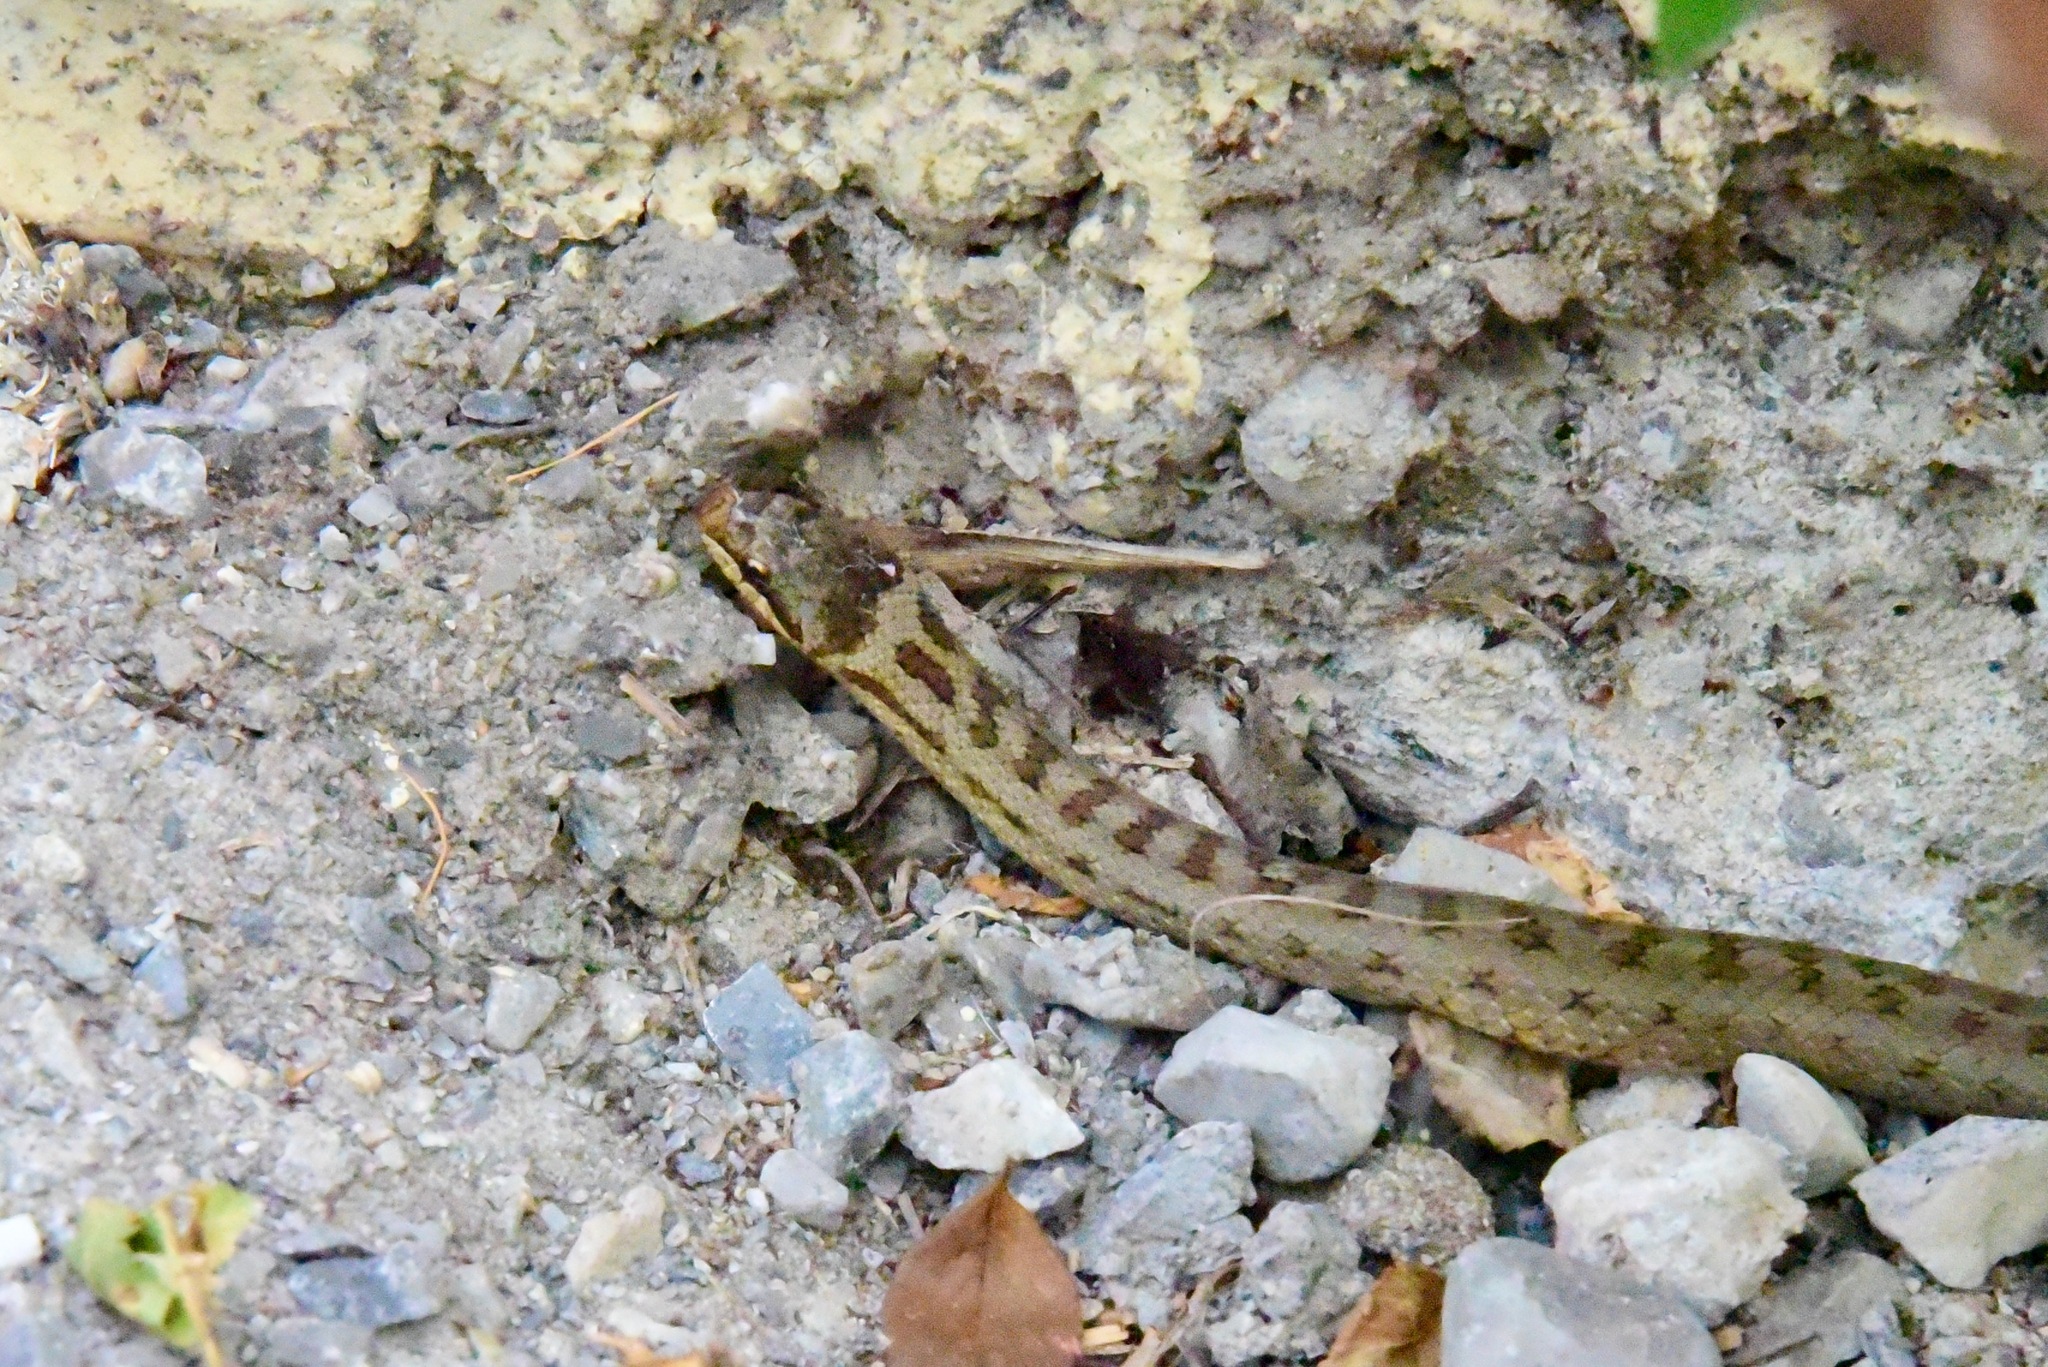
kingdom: Animalia
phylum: Chordata
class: Squamata
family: Colubridae
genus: Coronella
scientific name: Coronella austriaca
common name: Smooth snake
